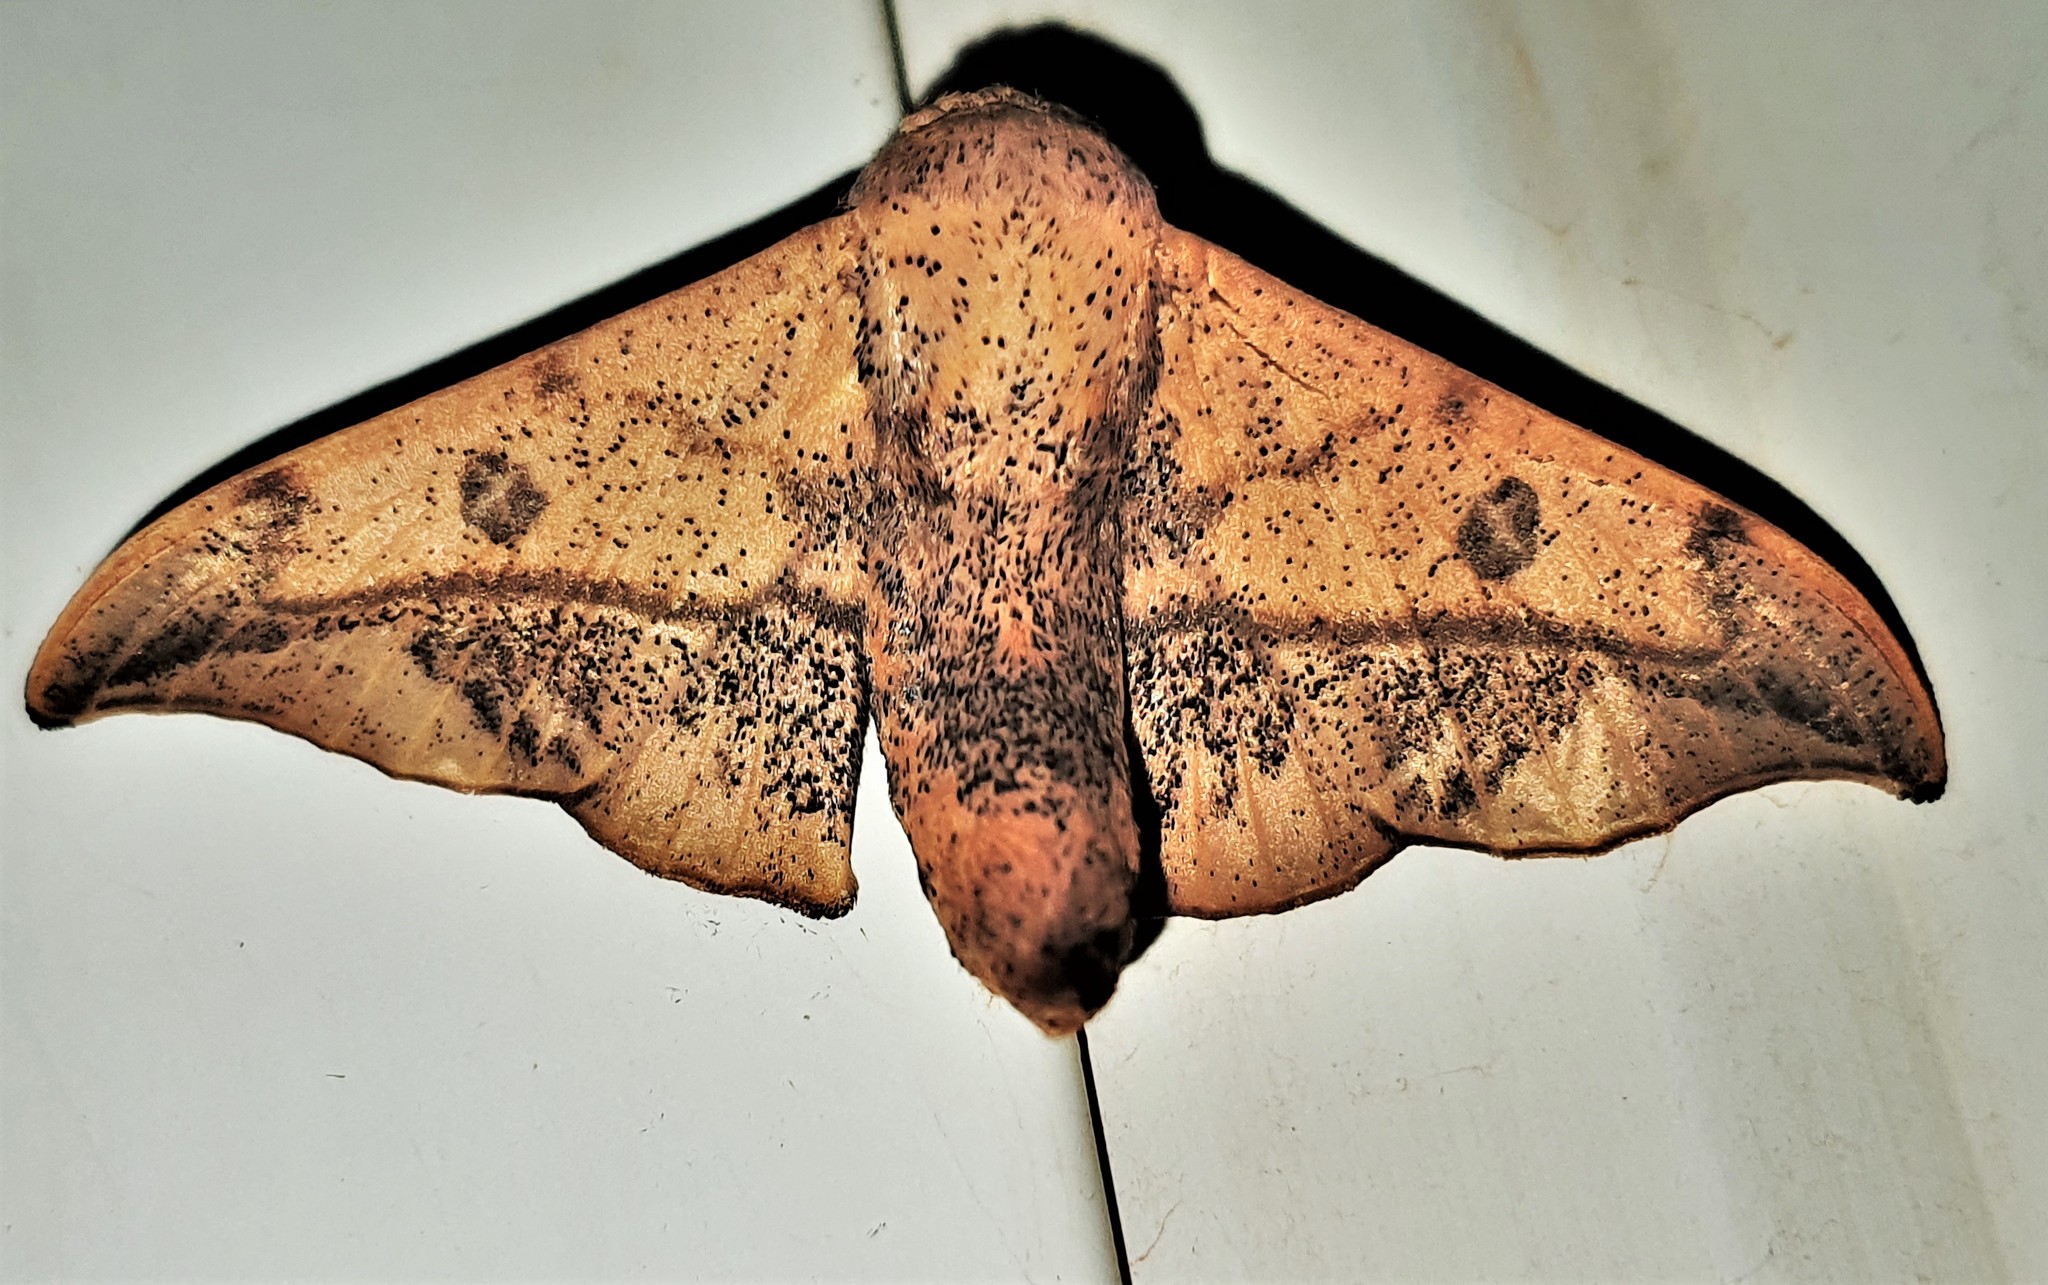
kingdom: Animalia
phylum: Arthropoda
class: Insecta
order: Lepidoptera
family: Mimallonidae
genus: Cicinnus
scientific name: Cicinnus candacus
